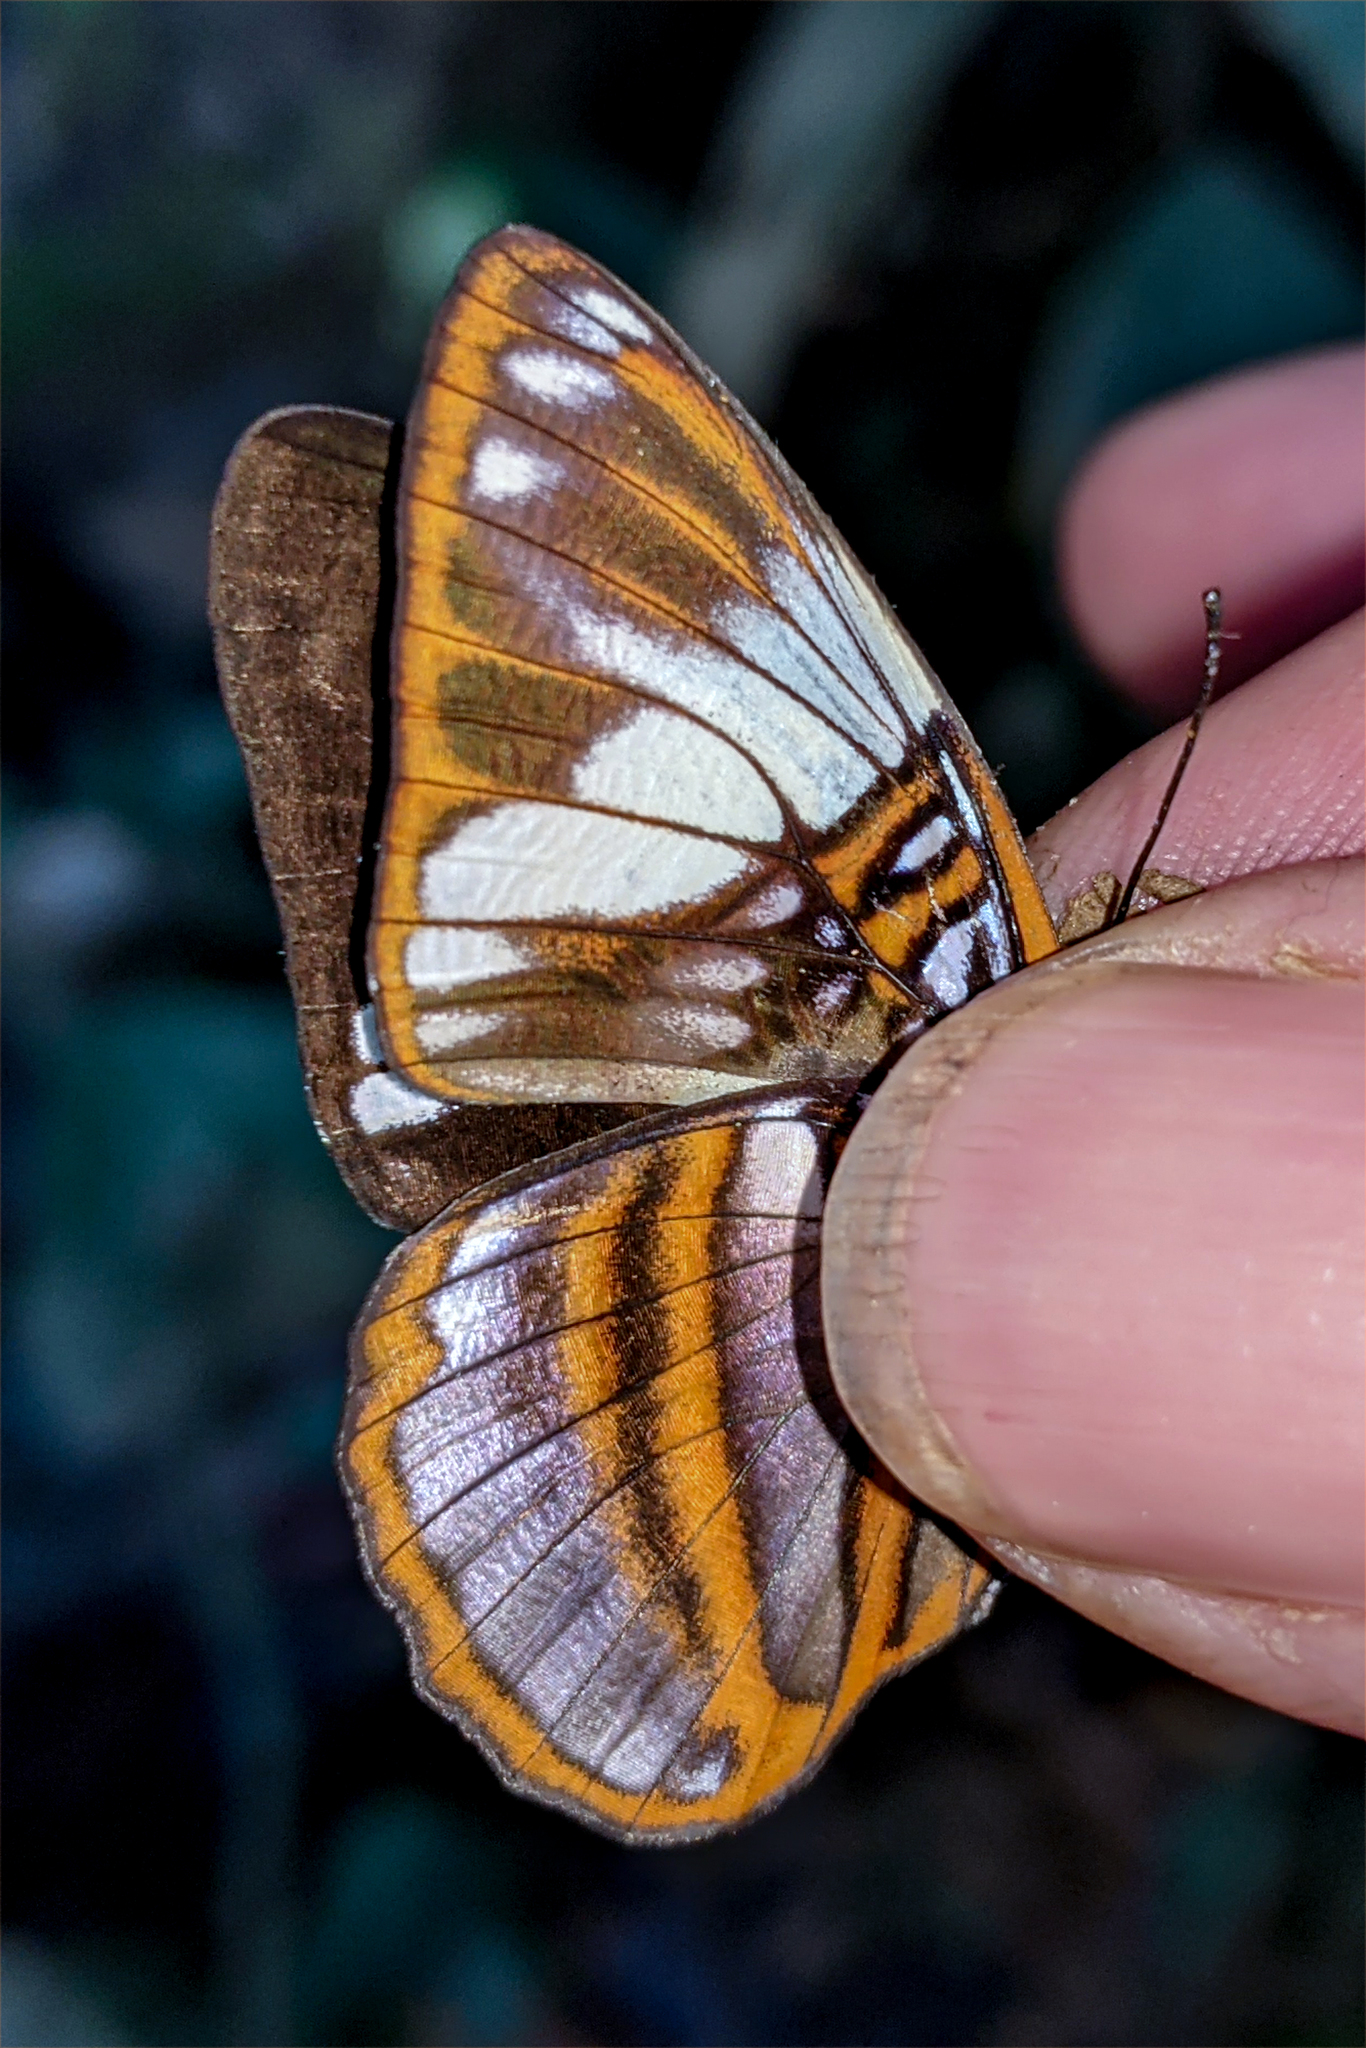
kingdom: Animalia
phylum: Arthropoda
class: Insecta
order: Lepidoptera
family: Nymphalidae
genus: Limenitis
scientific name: Limenitis epione
